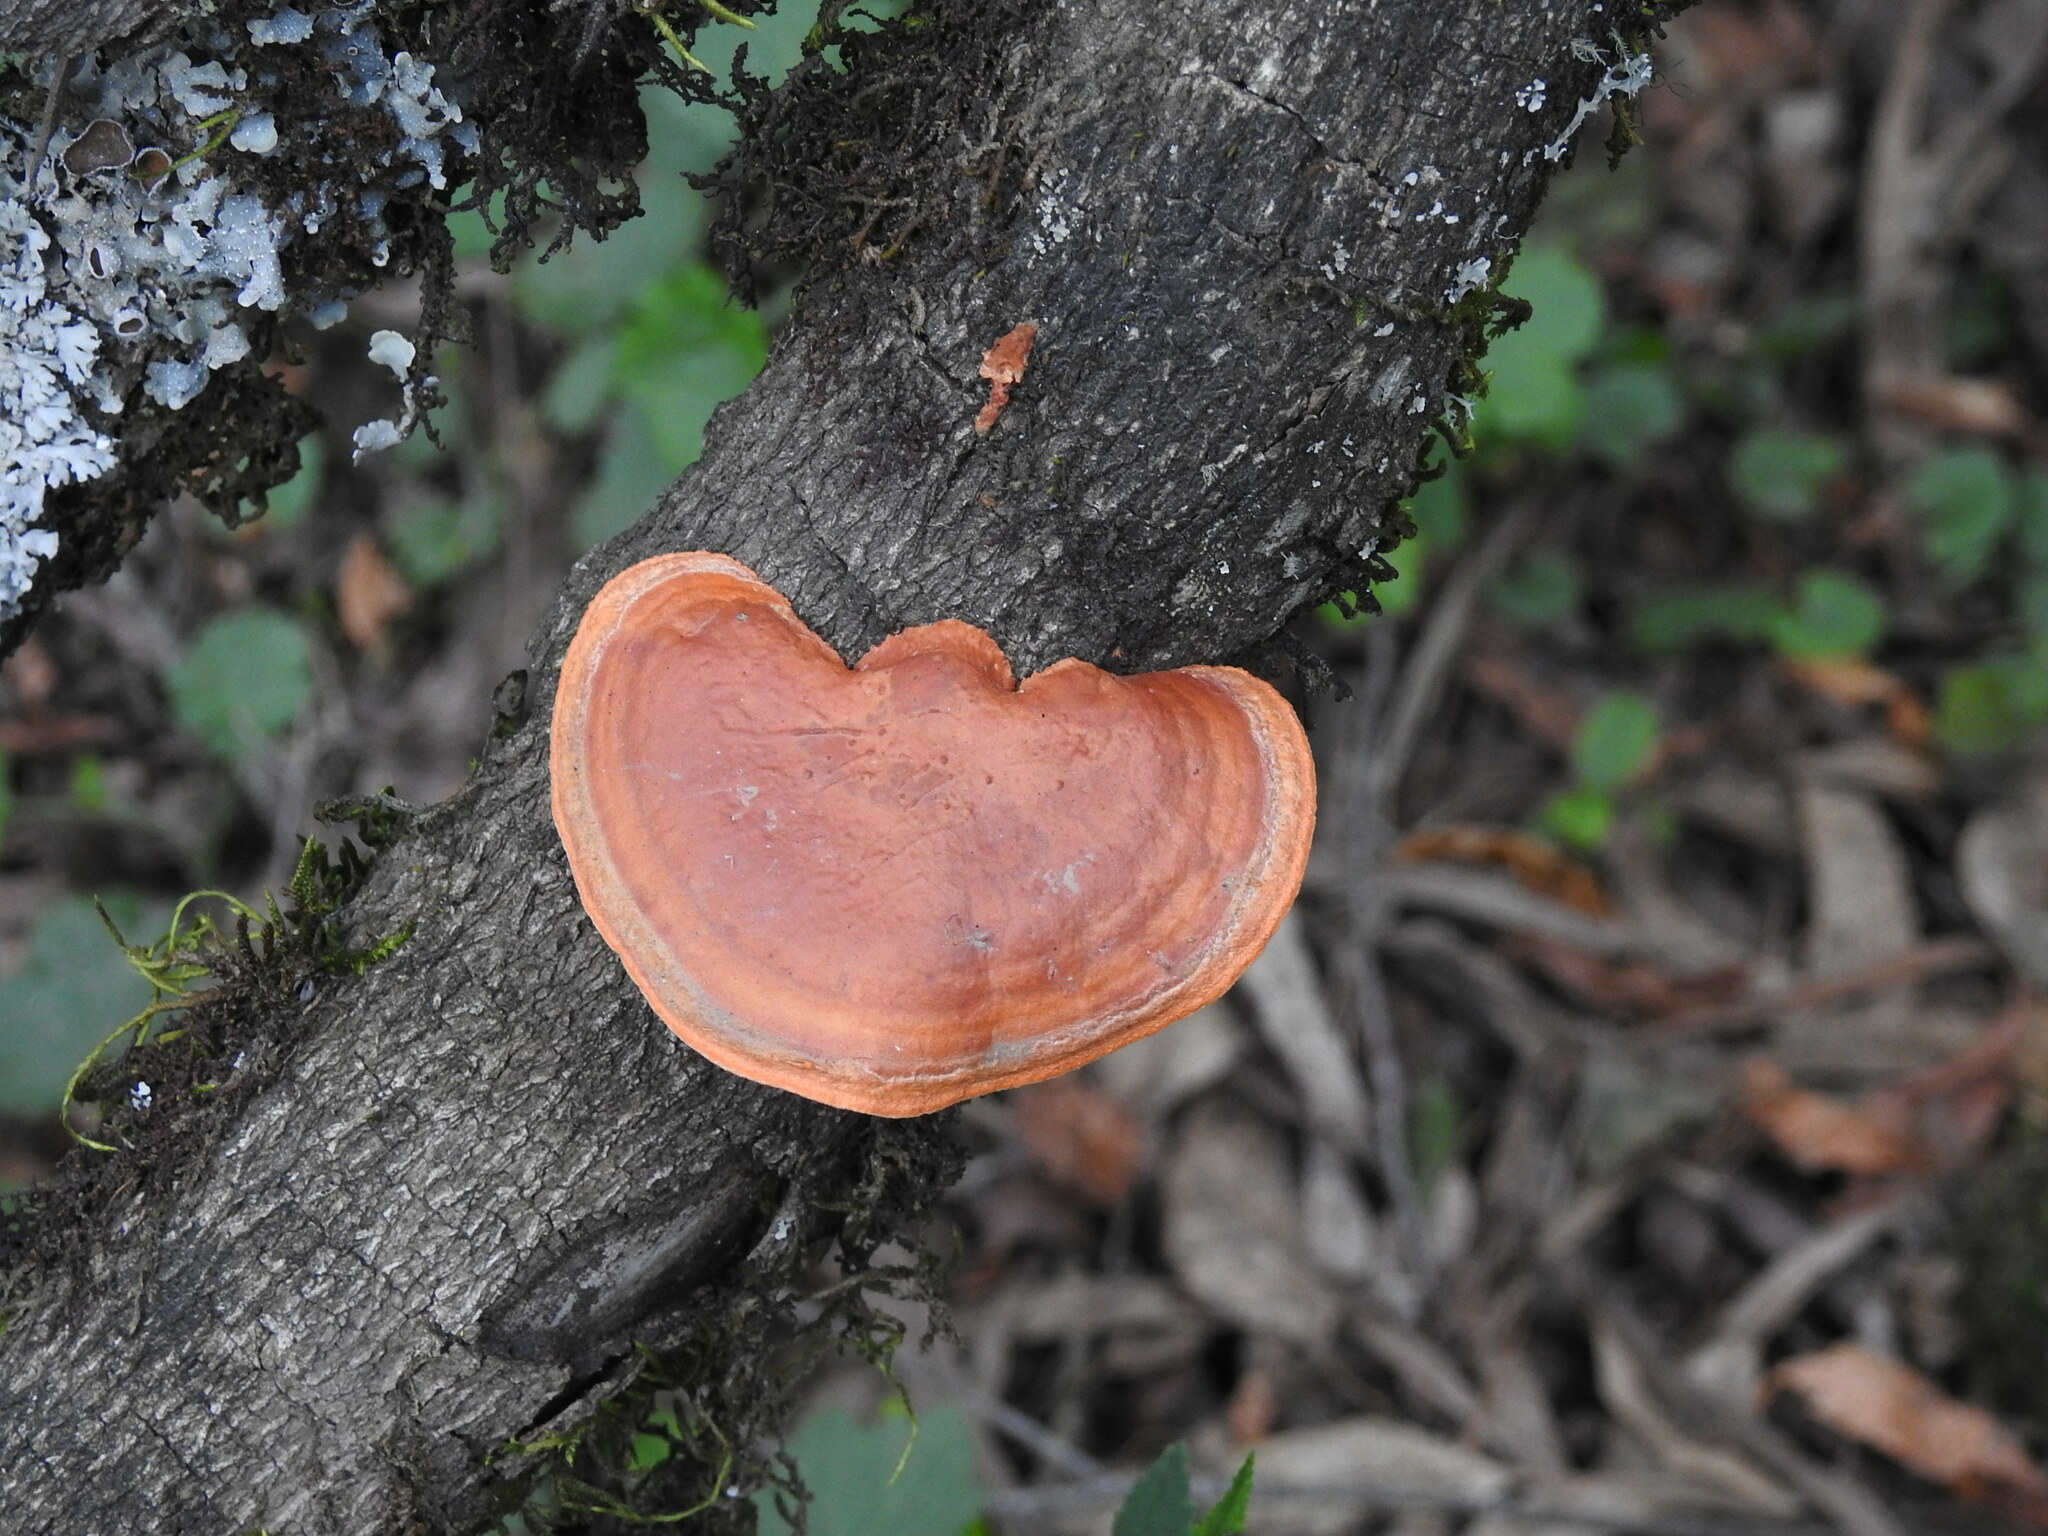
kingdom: Fungi
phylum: Basidiomycota
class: Agaricomycetes
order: Polyporales
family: Polyporaceae
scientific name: Polyporaceae
